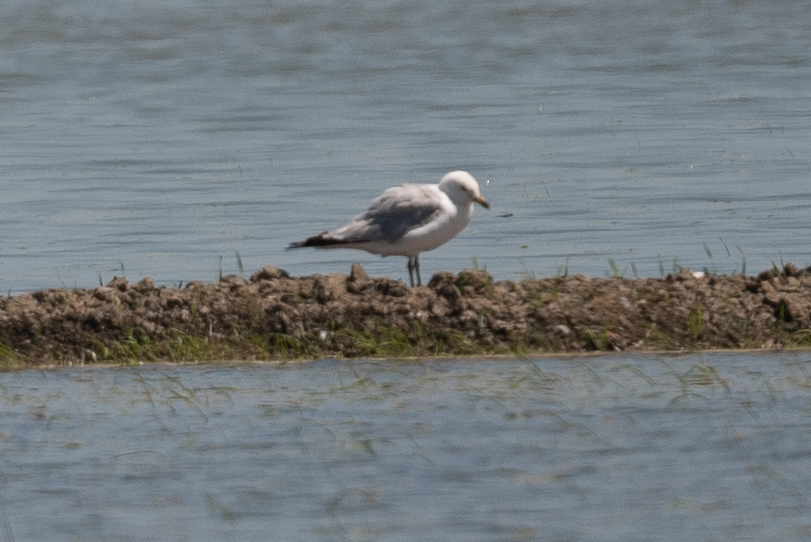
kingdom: Animalia
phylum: Chordata
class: Aves
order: Charadriiformes
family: Laridae
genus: Larus
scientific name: Larus delawarensis
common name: Ring-billed gull
